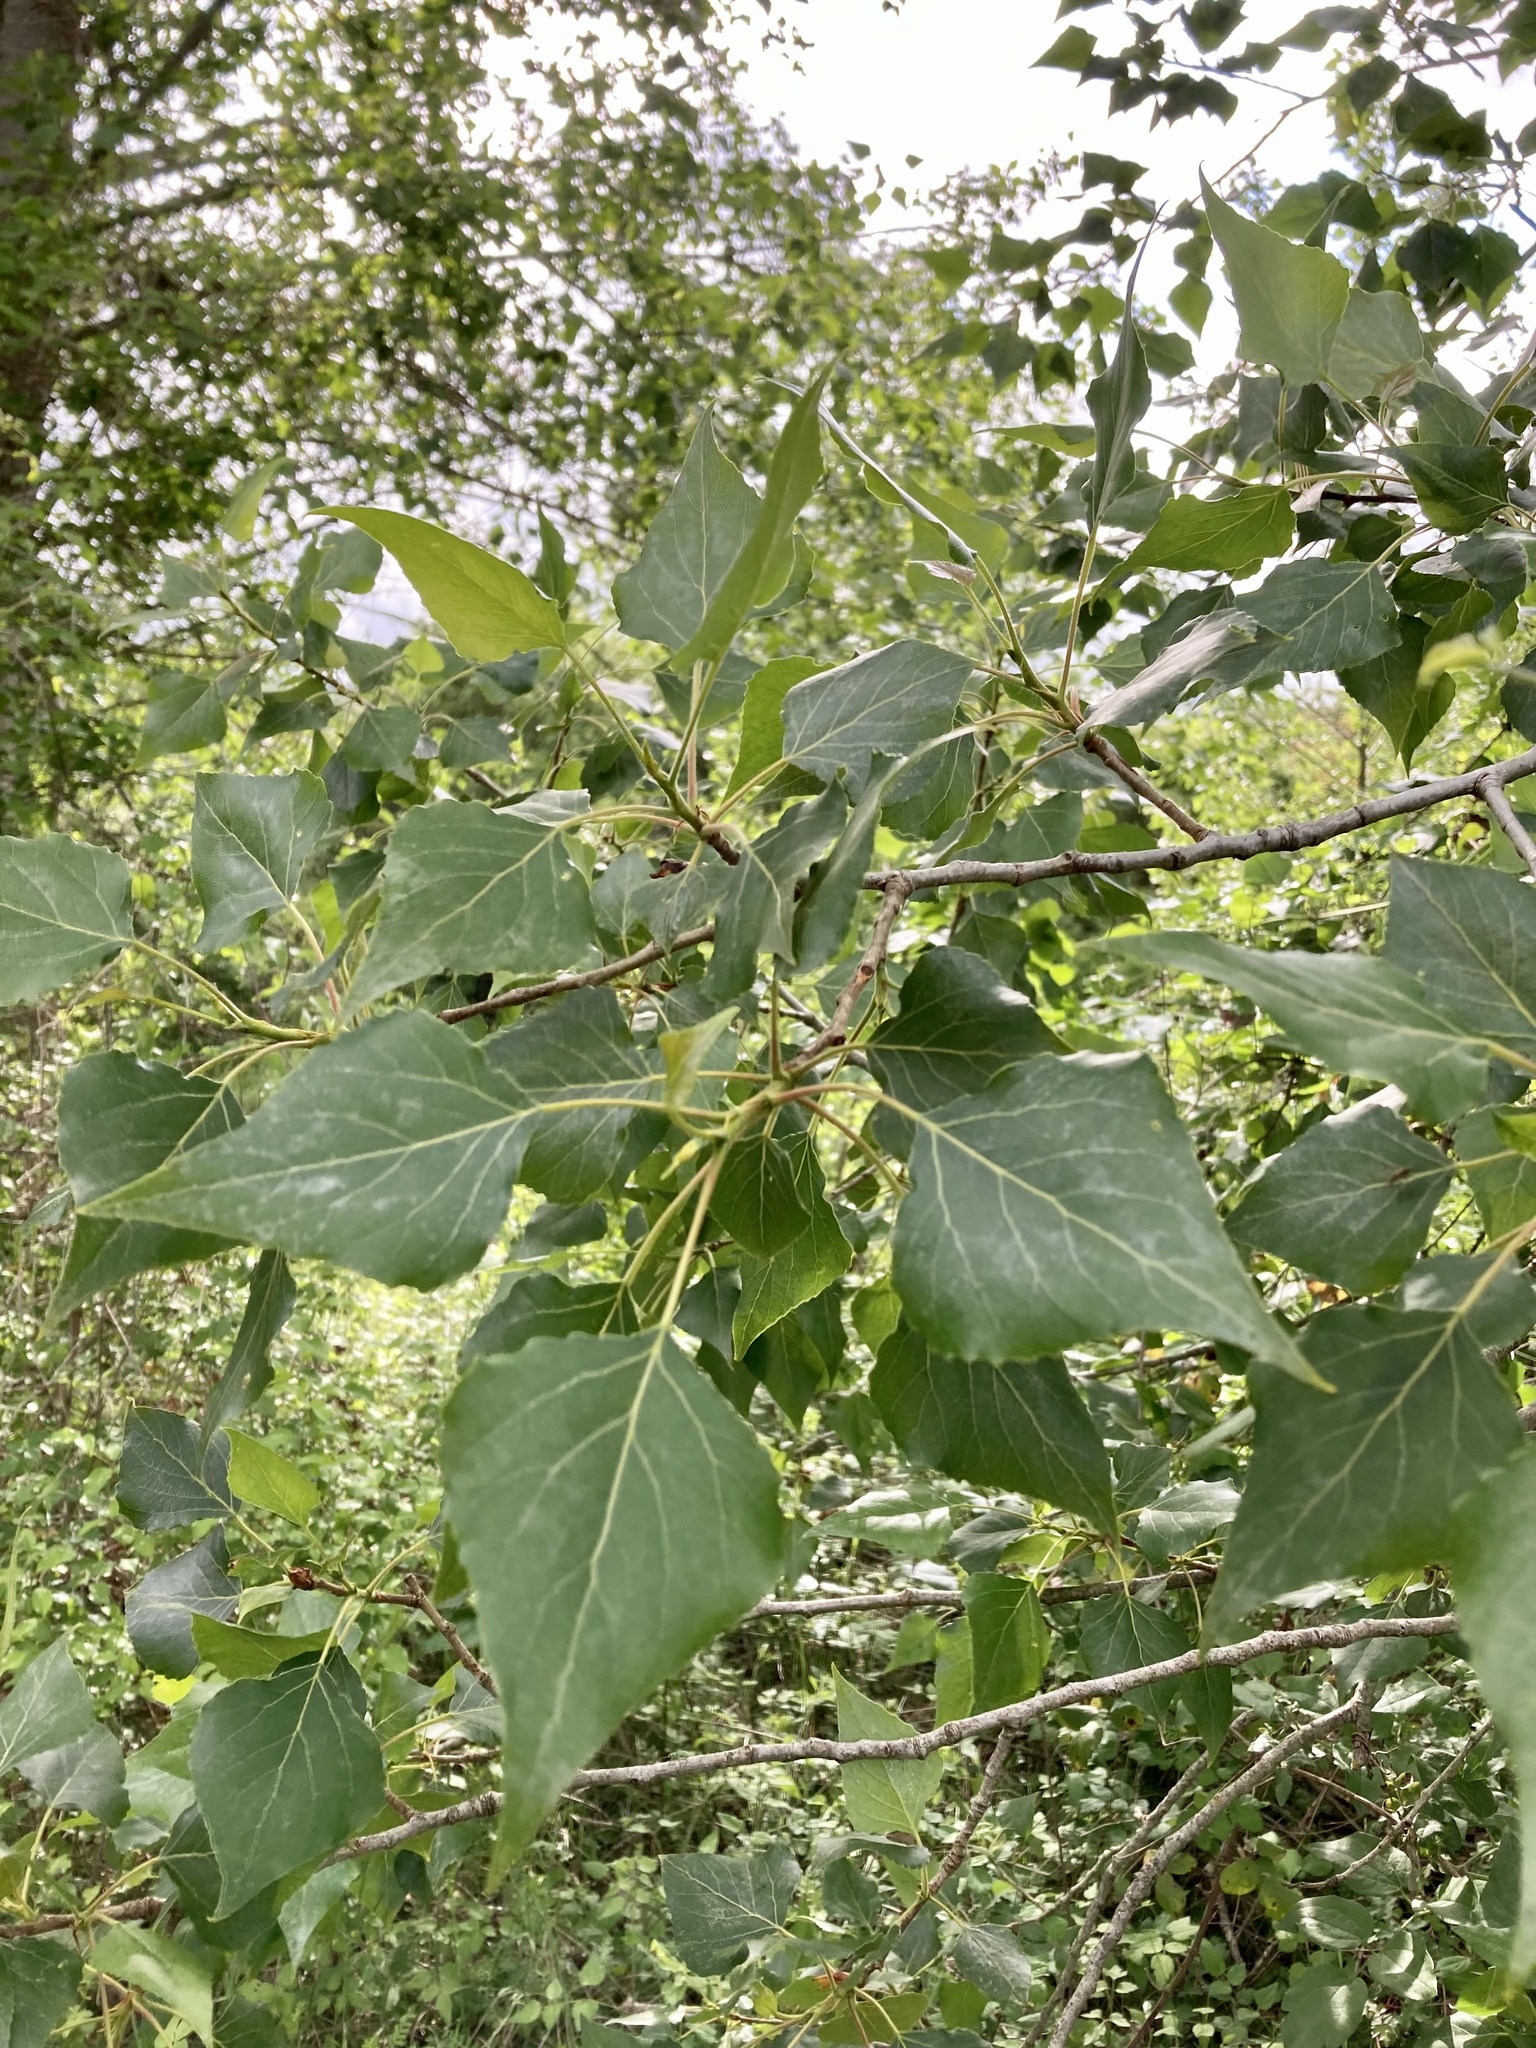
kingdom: Plantae
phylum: Tracheophyta
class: Magnoliopsida
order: Malpighiales
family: Salicaceae
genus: Populus
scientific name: Populus nigra
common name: Black poplar
